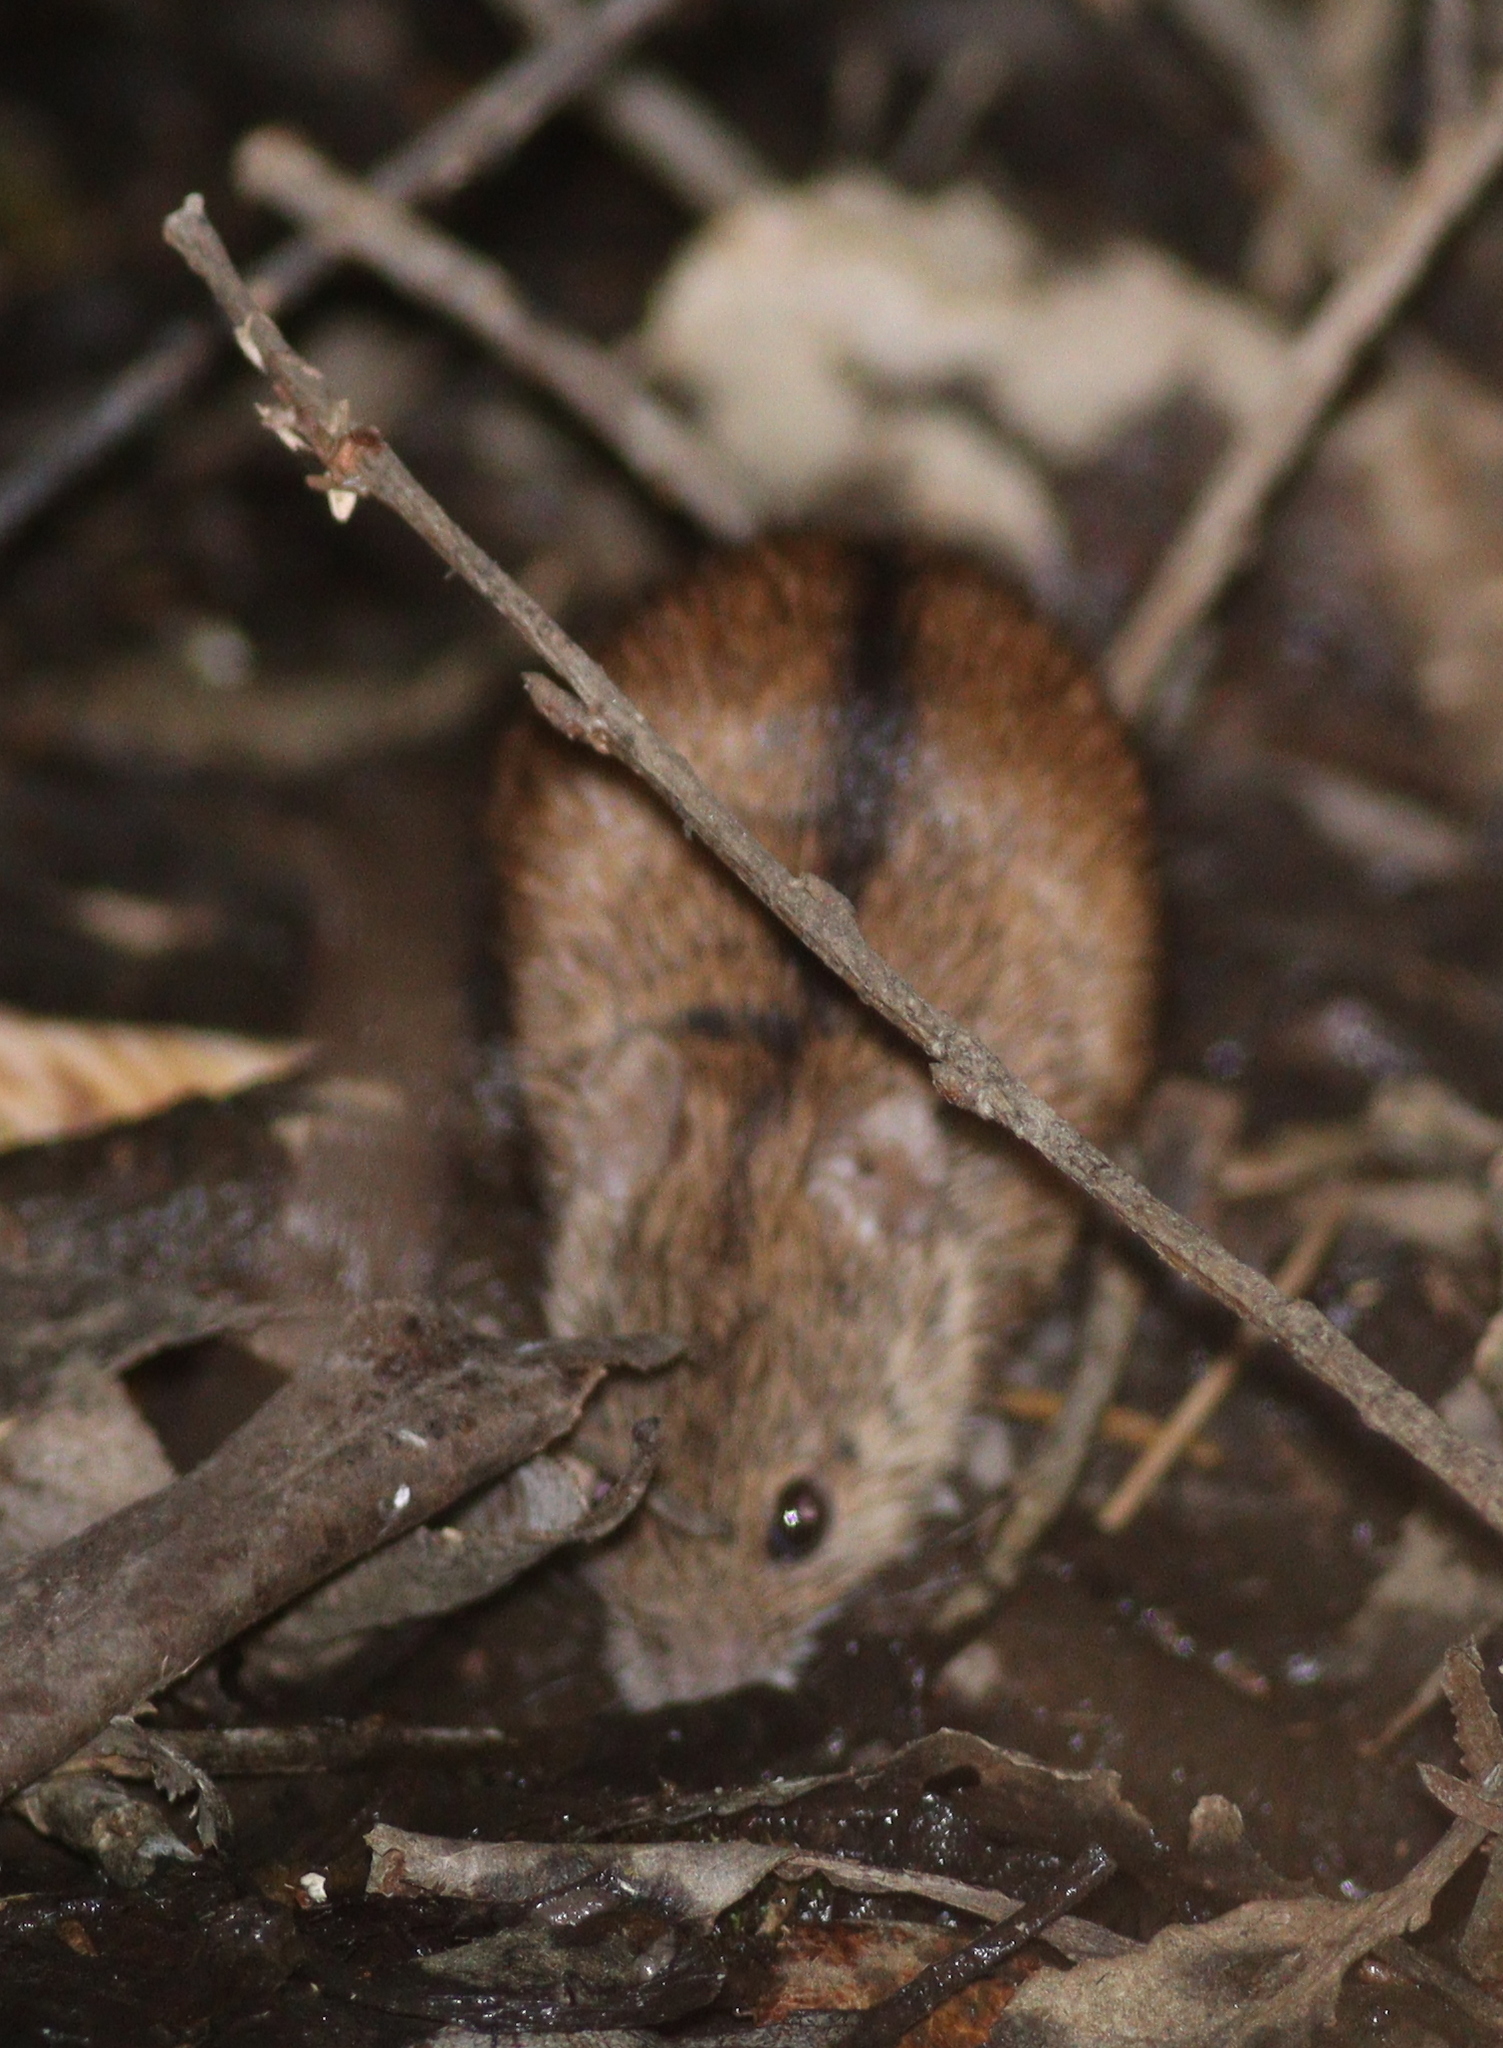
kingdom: Animalia
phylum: Chordata
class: Mammalia
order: Rodentia
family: Muridae
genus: Apodemus
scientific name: Apodemus agrarius
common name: Striped field mouse
